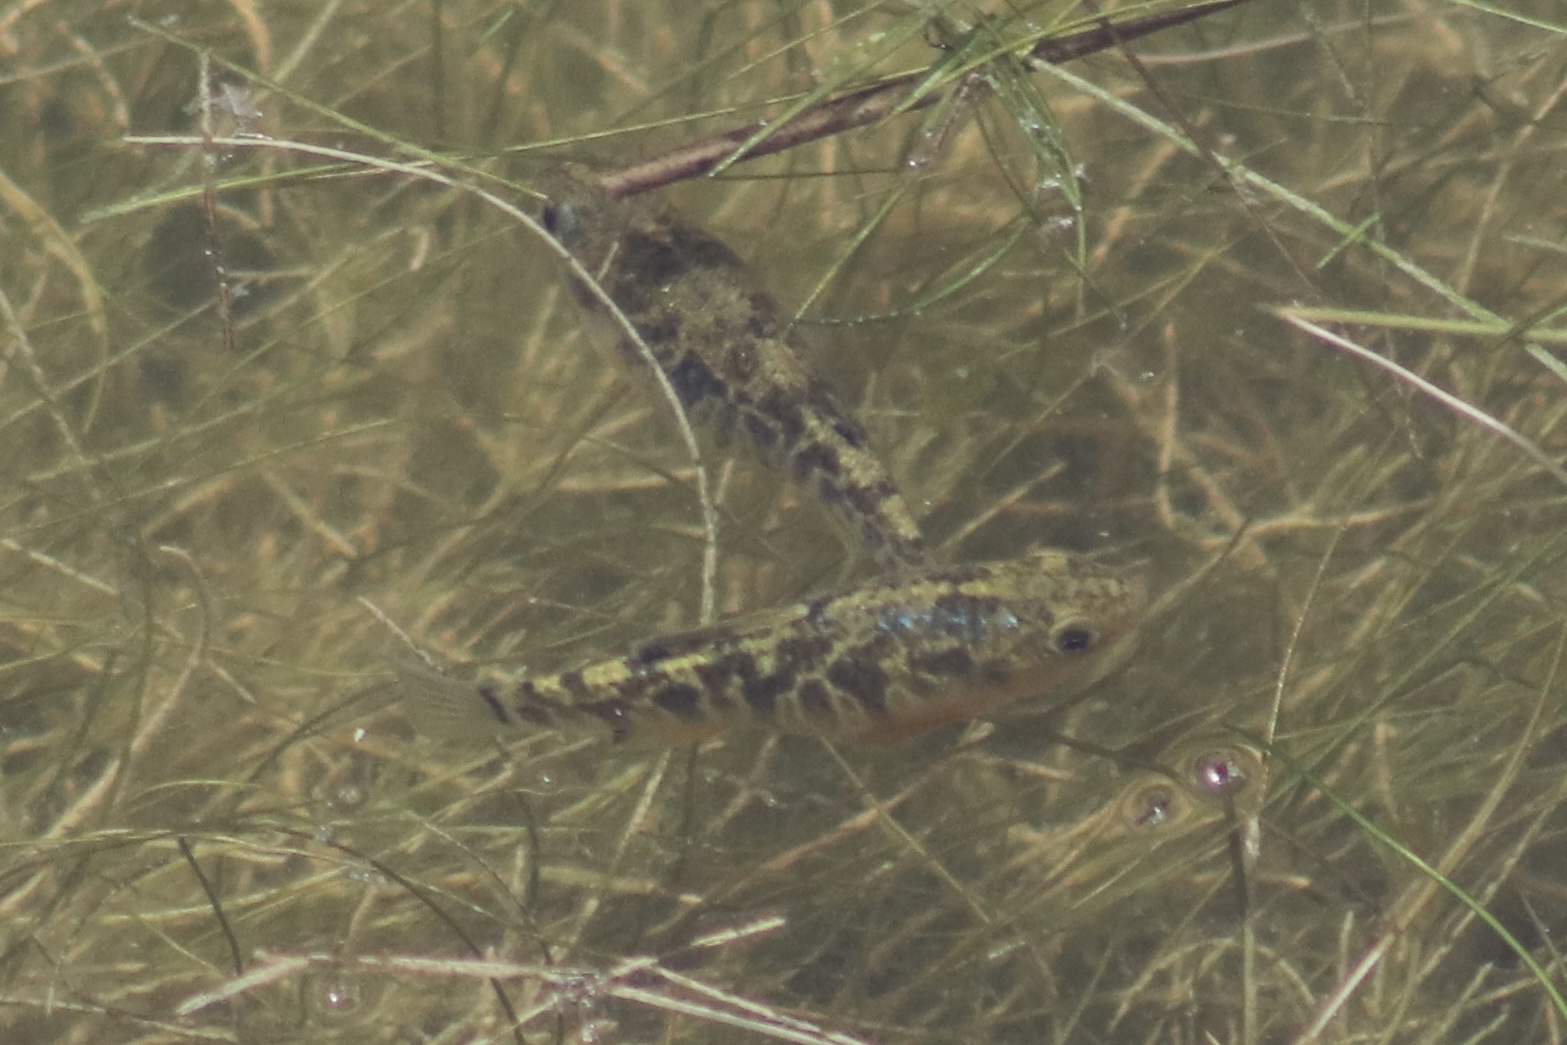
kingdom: Animalia
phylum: Chordata
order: Cyprinodontiformes
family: Cyprinodontidae
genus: Cyprinodon
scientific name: Cyprinodon variegatus
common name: Sheepshead minnow
